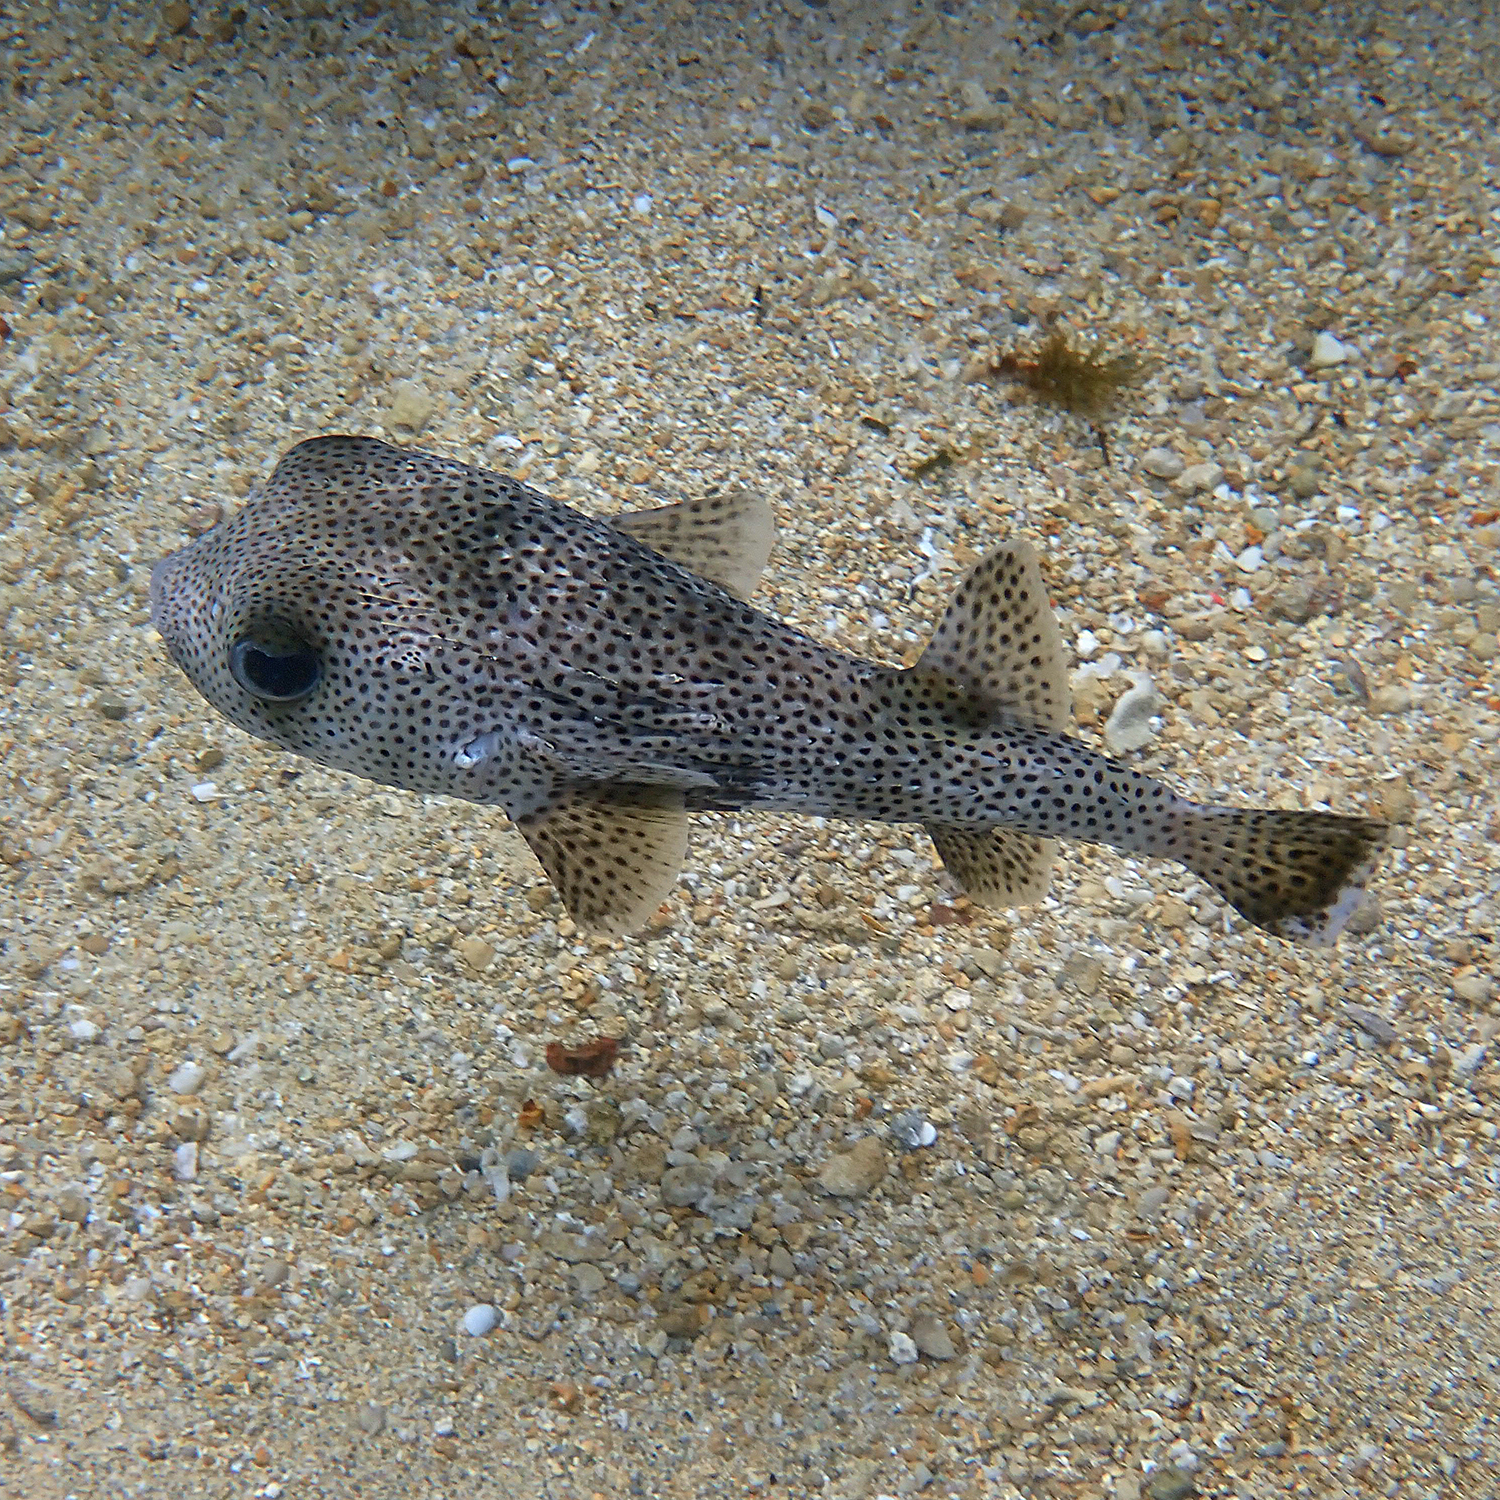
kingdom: Animalia
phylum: Chordata
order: Tetraodontiformes
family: Diodontidae
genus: Diodon
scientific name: Diodon hystrix
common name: Giant porcupinefish
